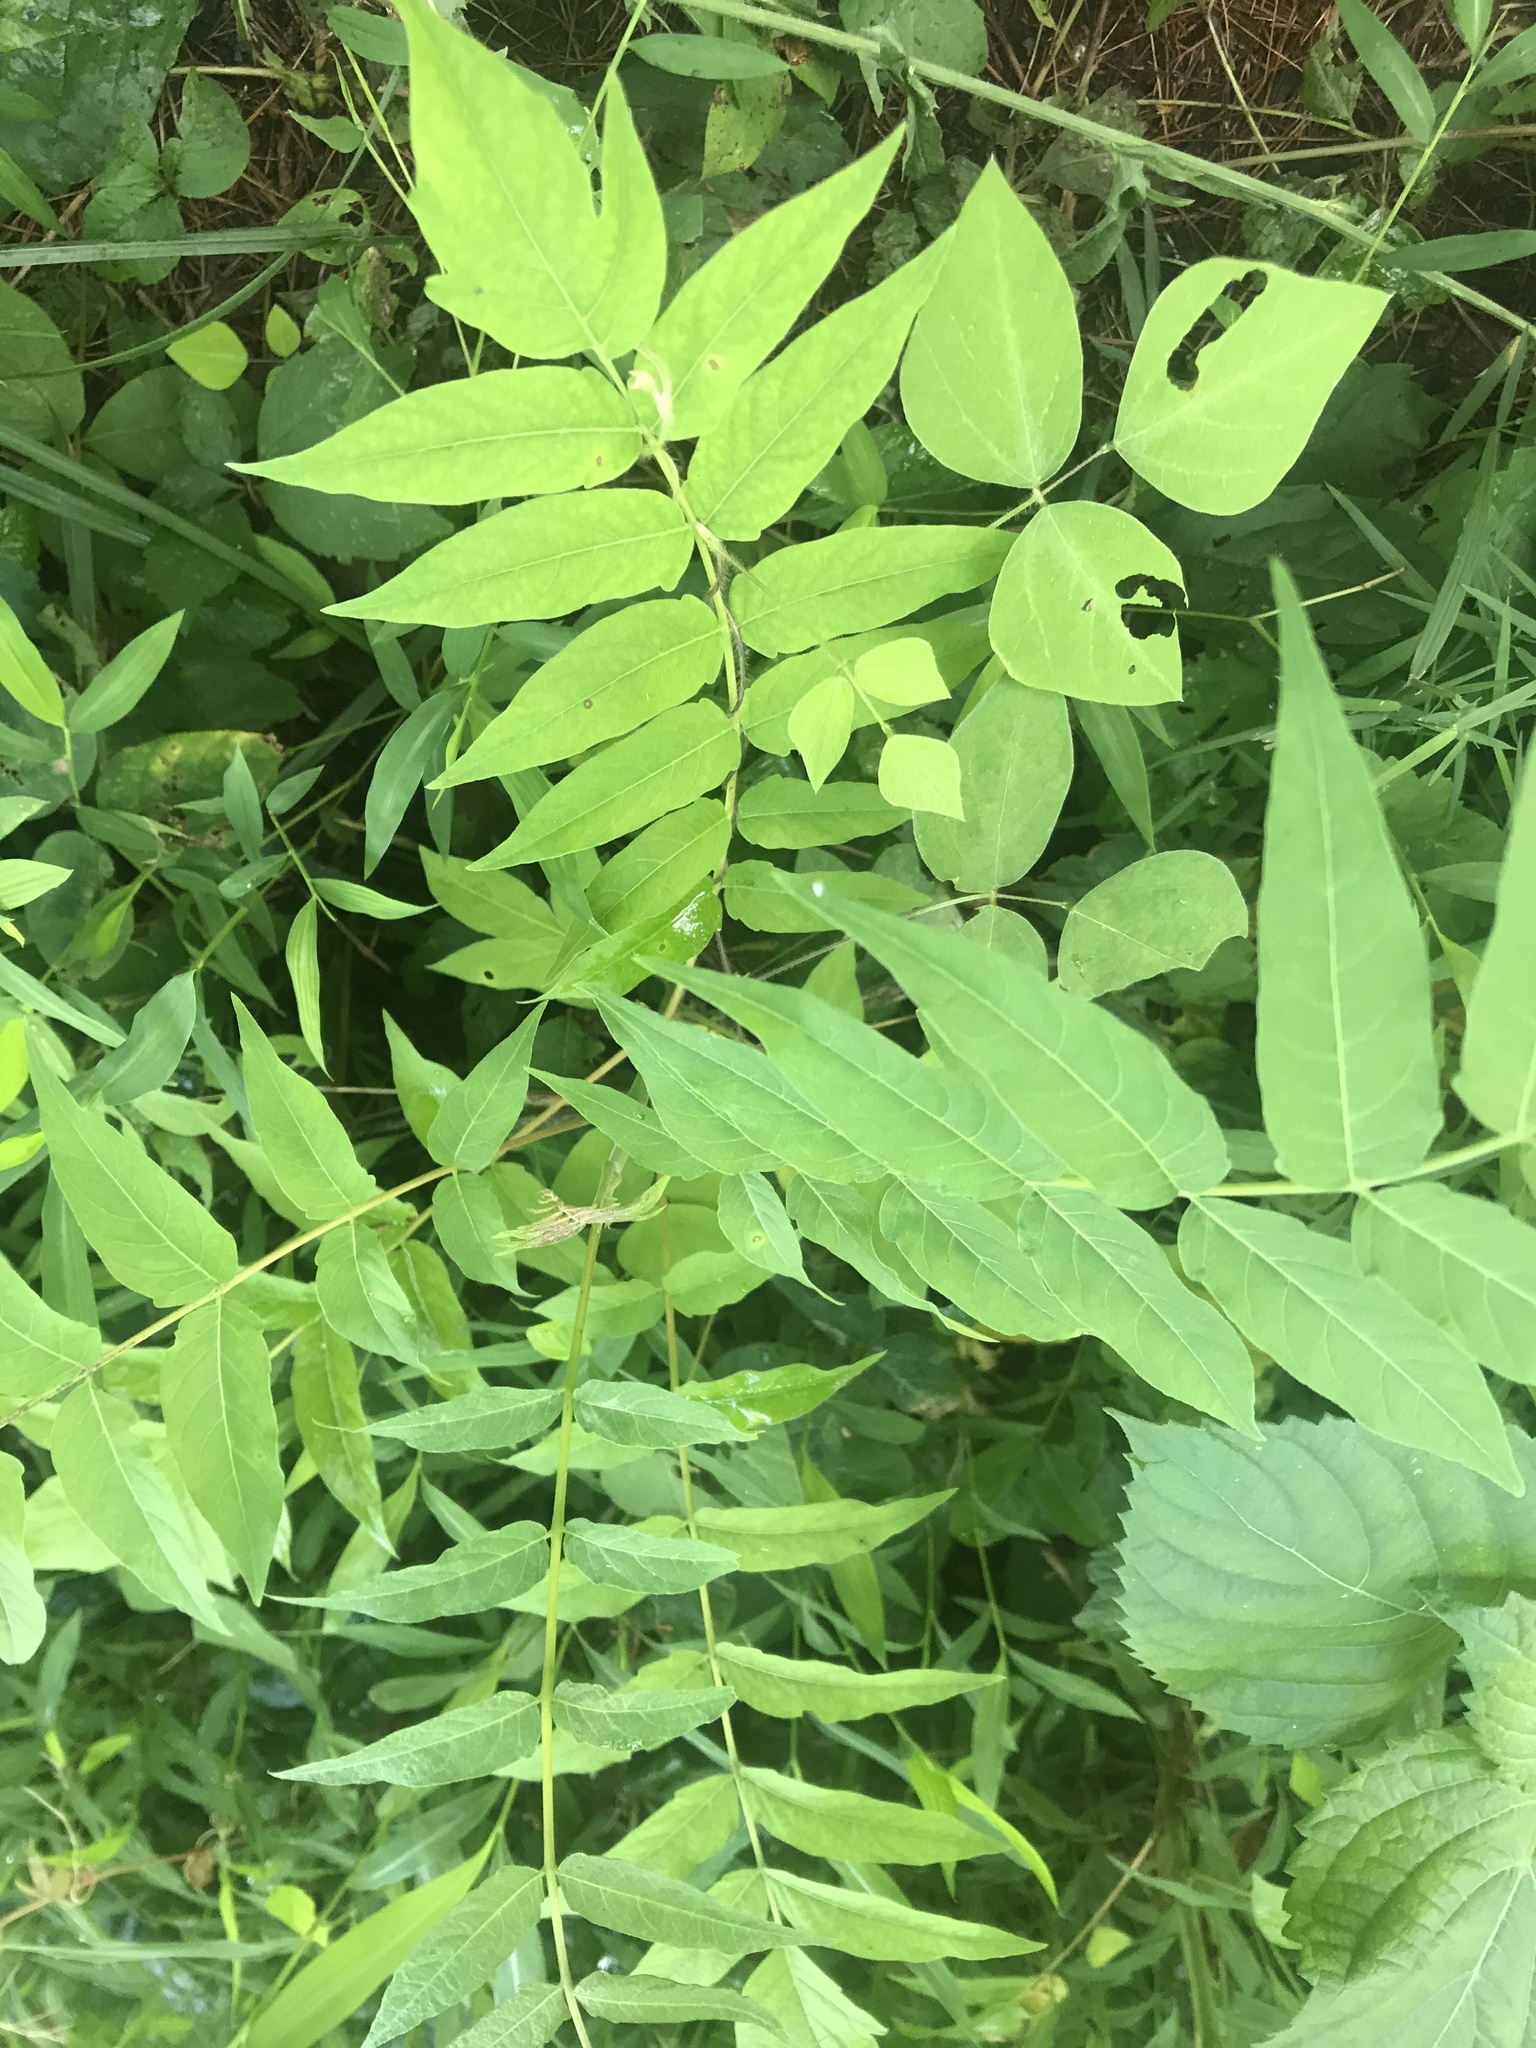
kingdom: Plantae
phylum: Tracheophyta
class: Magnoliopsida
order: Sapindales
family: Simaroubaceae
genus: Ailanthus
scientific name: Ailanthus altissima
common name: Tree-of-heaven
